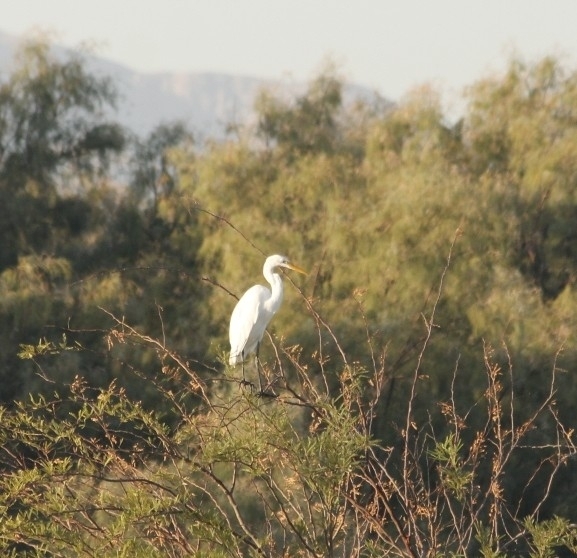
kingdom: Animalia
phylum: Chordata
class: Aves
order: Pelecaniformes
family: Ardeidae
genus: Ardea
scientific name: Ardea alba
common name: Great egret
